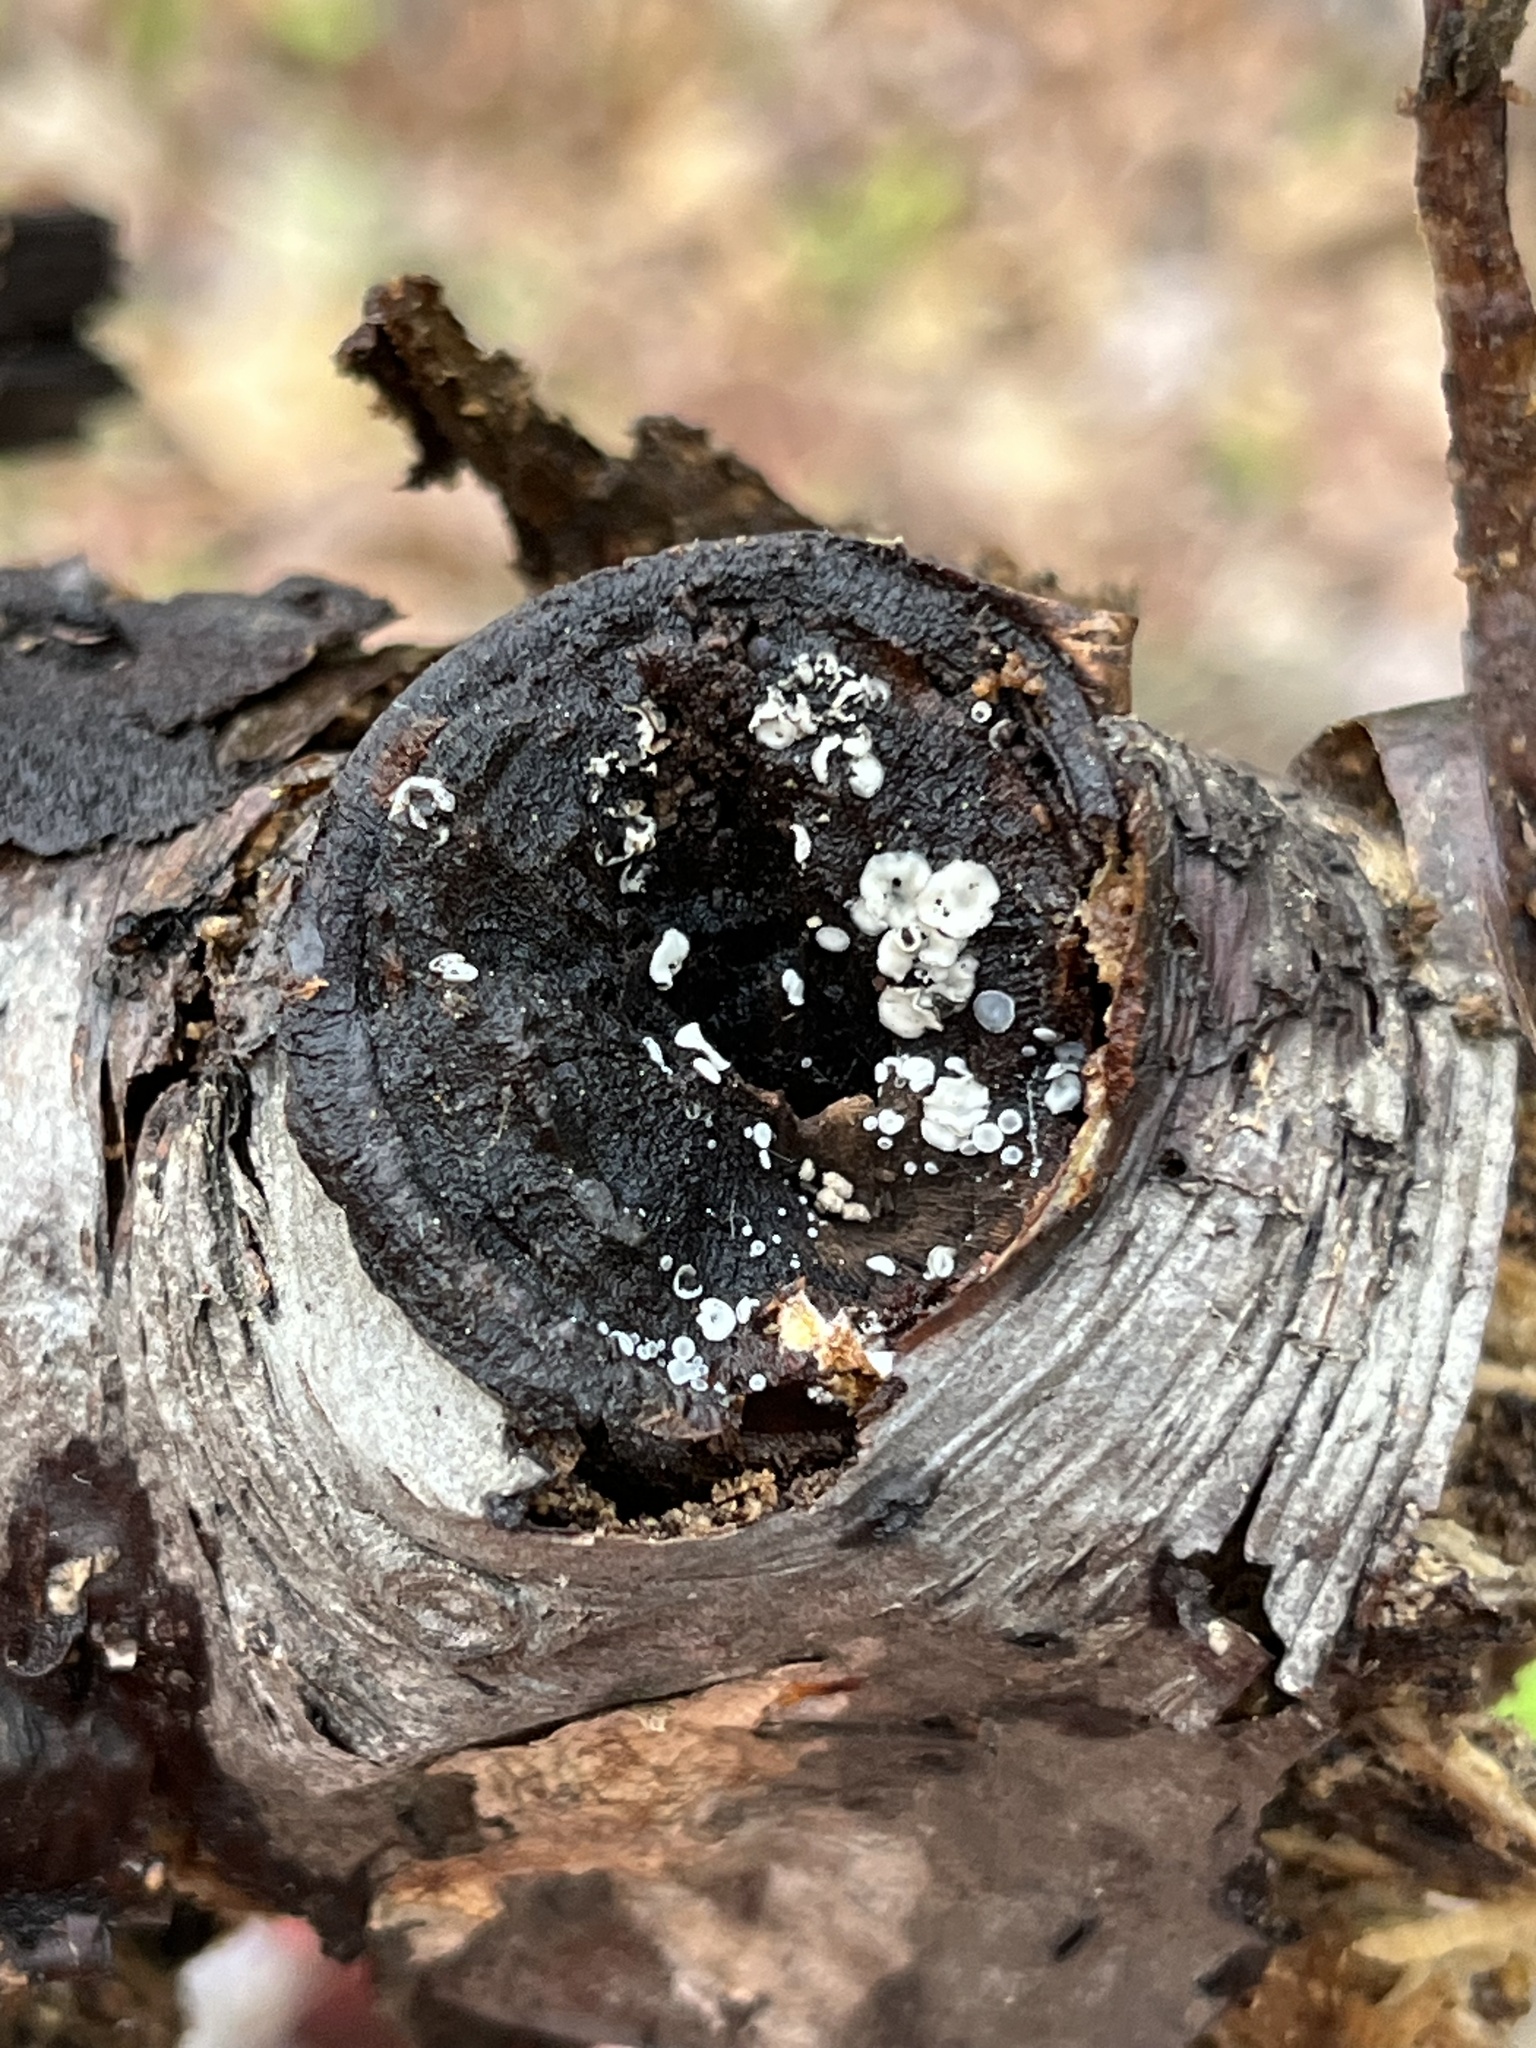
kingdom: Fungi
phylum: Ascomycota
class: Leotiomycetes
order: Helotiales
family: Mollisiaceae
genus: Mollisia
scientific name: Mollisia cinerea
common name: Common grey disco
